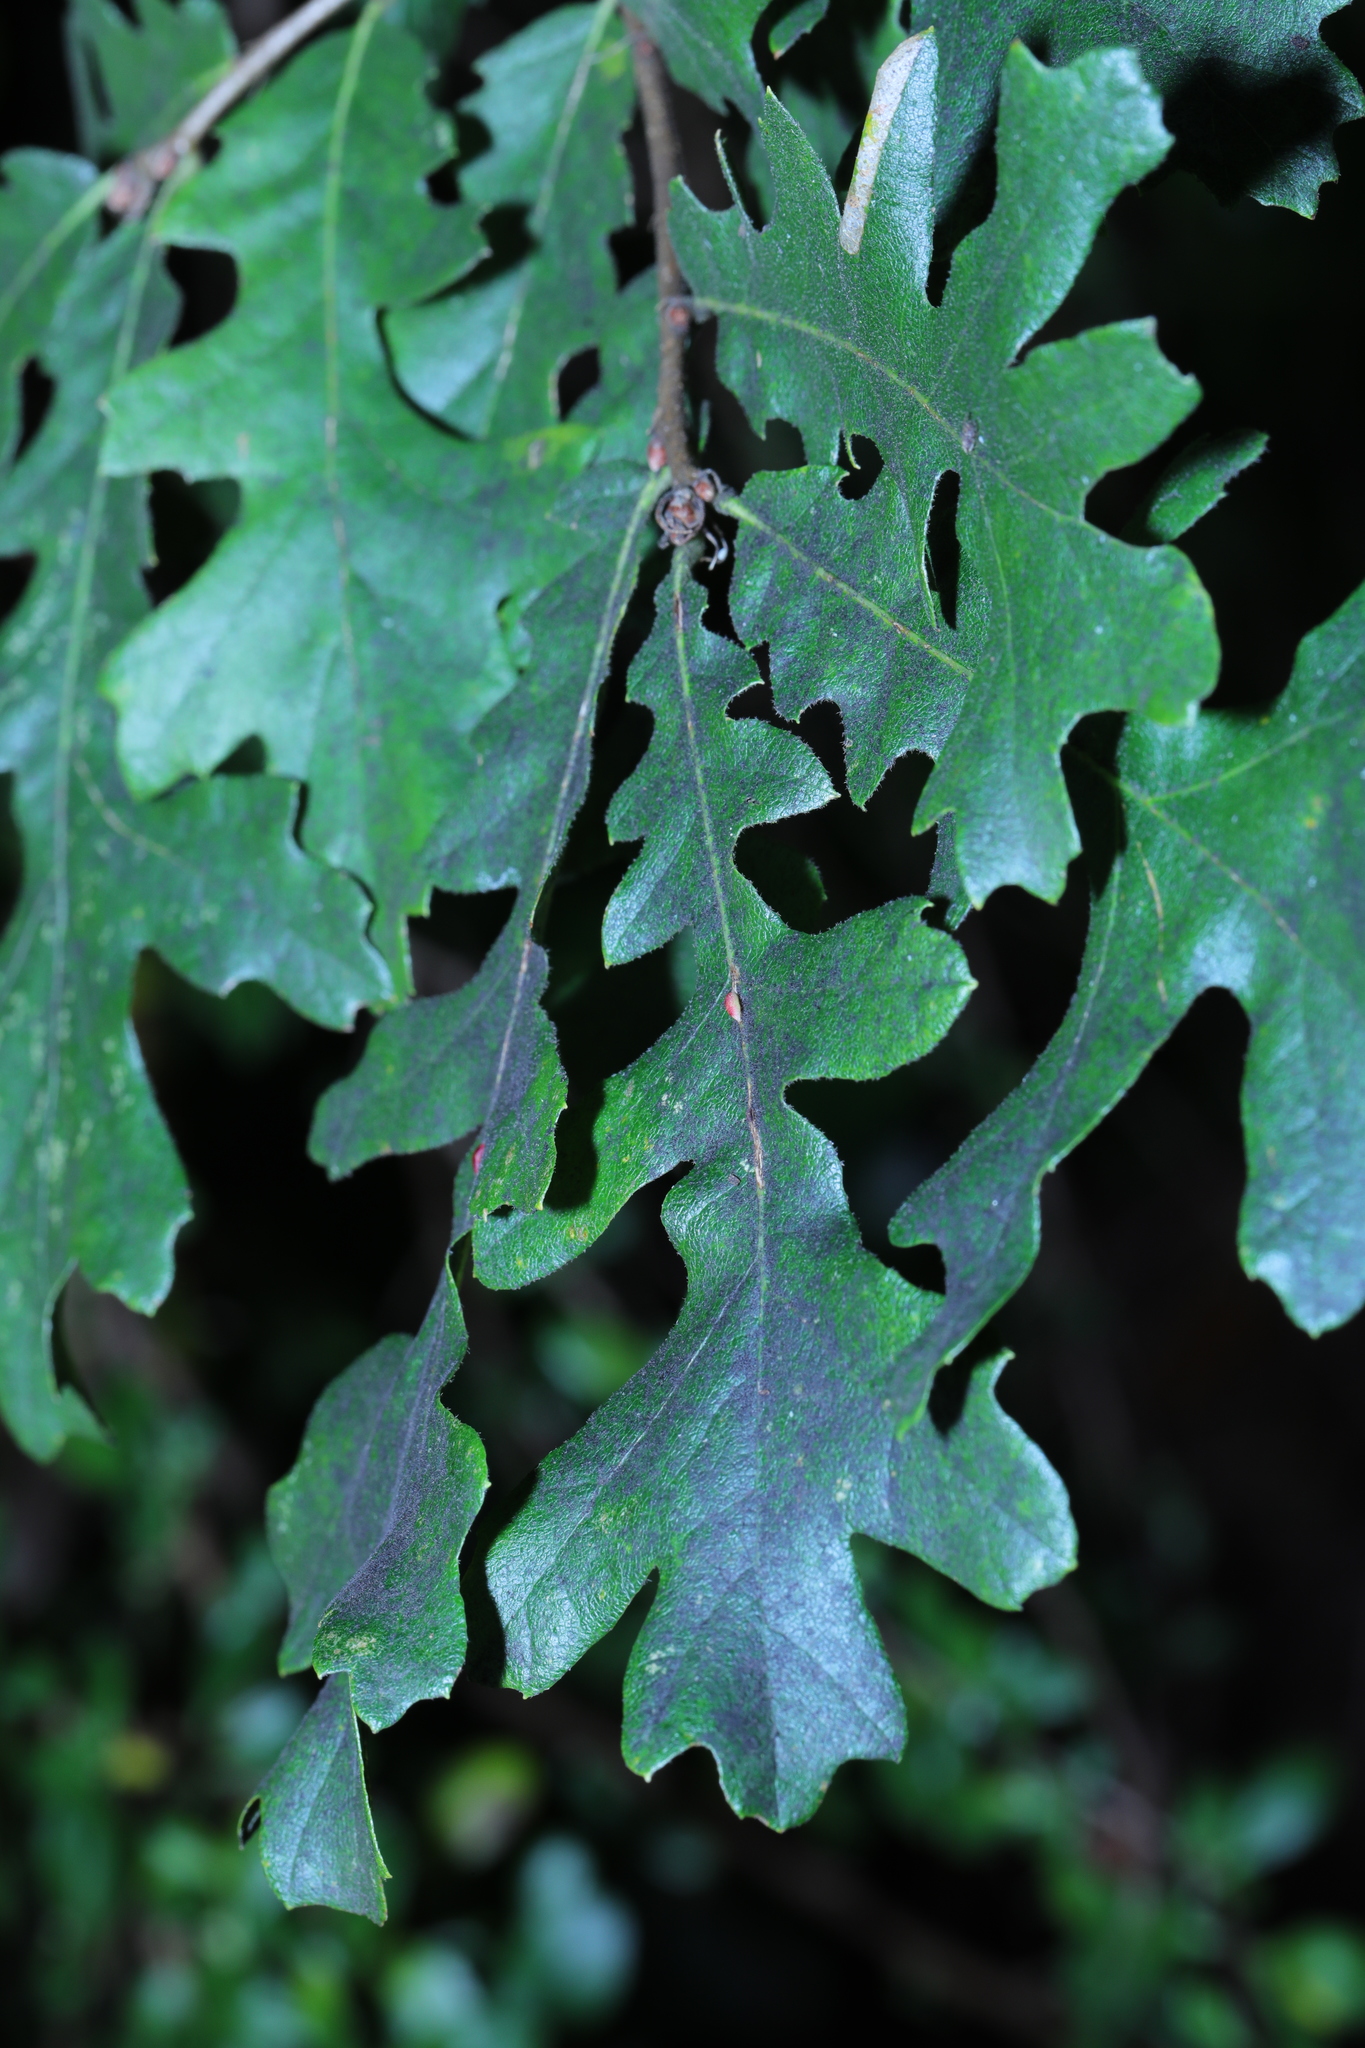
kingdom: Plantae
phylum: Tracheophyta
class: Magnoliopsida
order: Fagales
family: Fagaceae
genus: Quercus
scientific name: Quercus cerris
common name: Turkey oak
